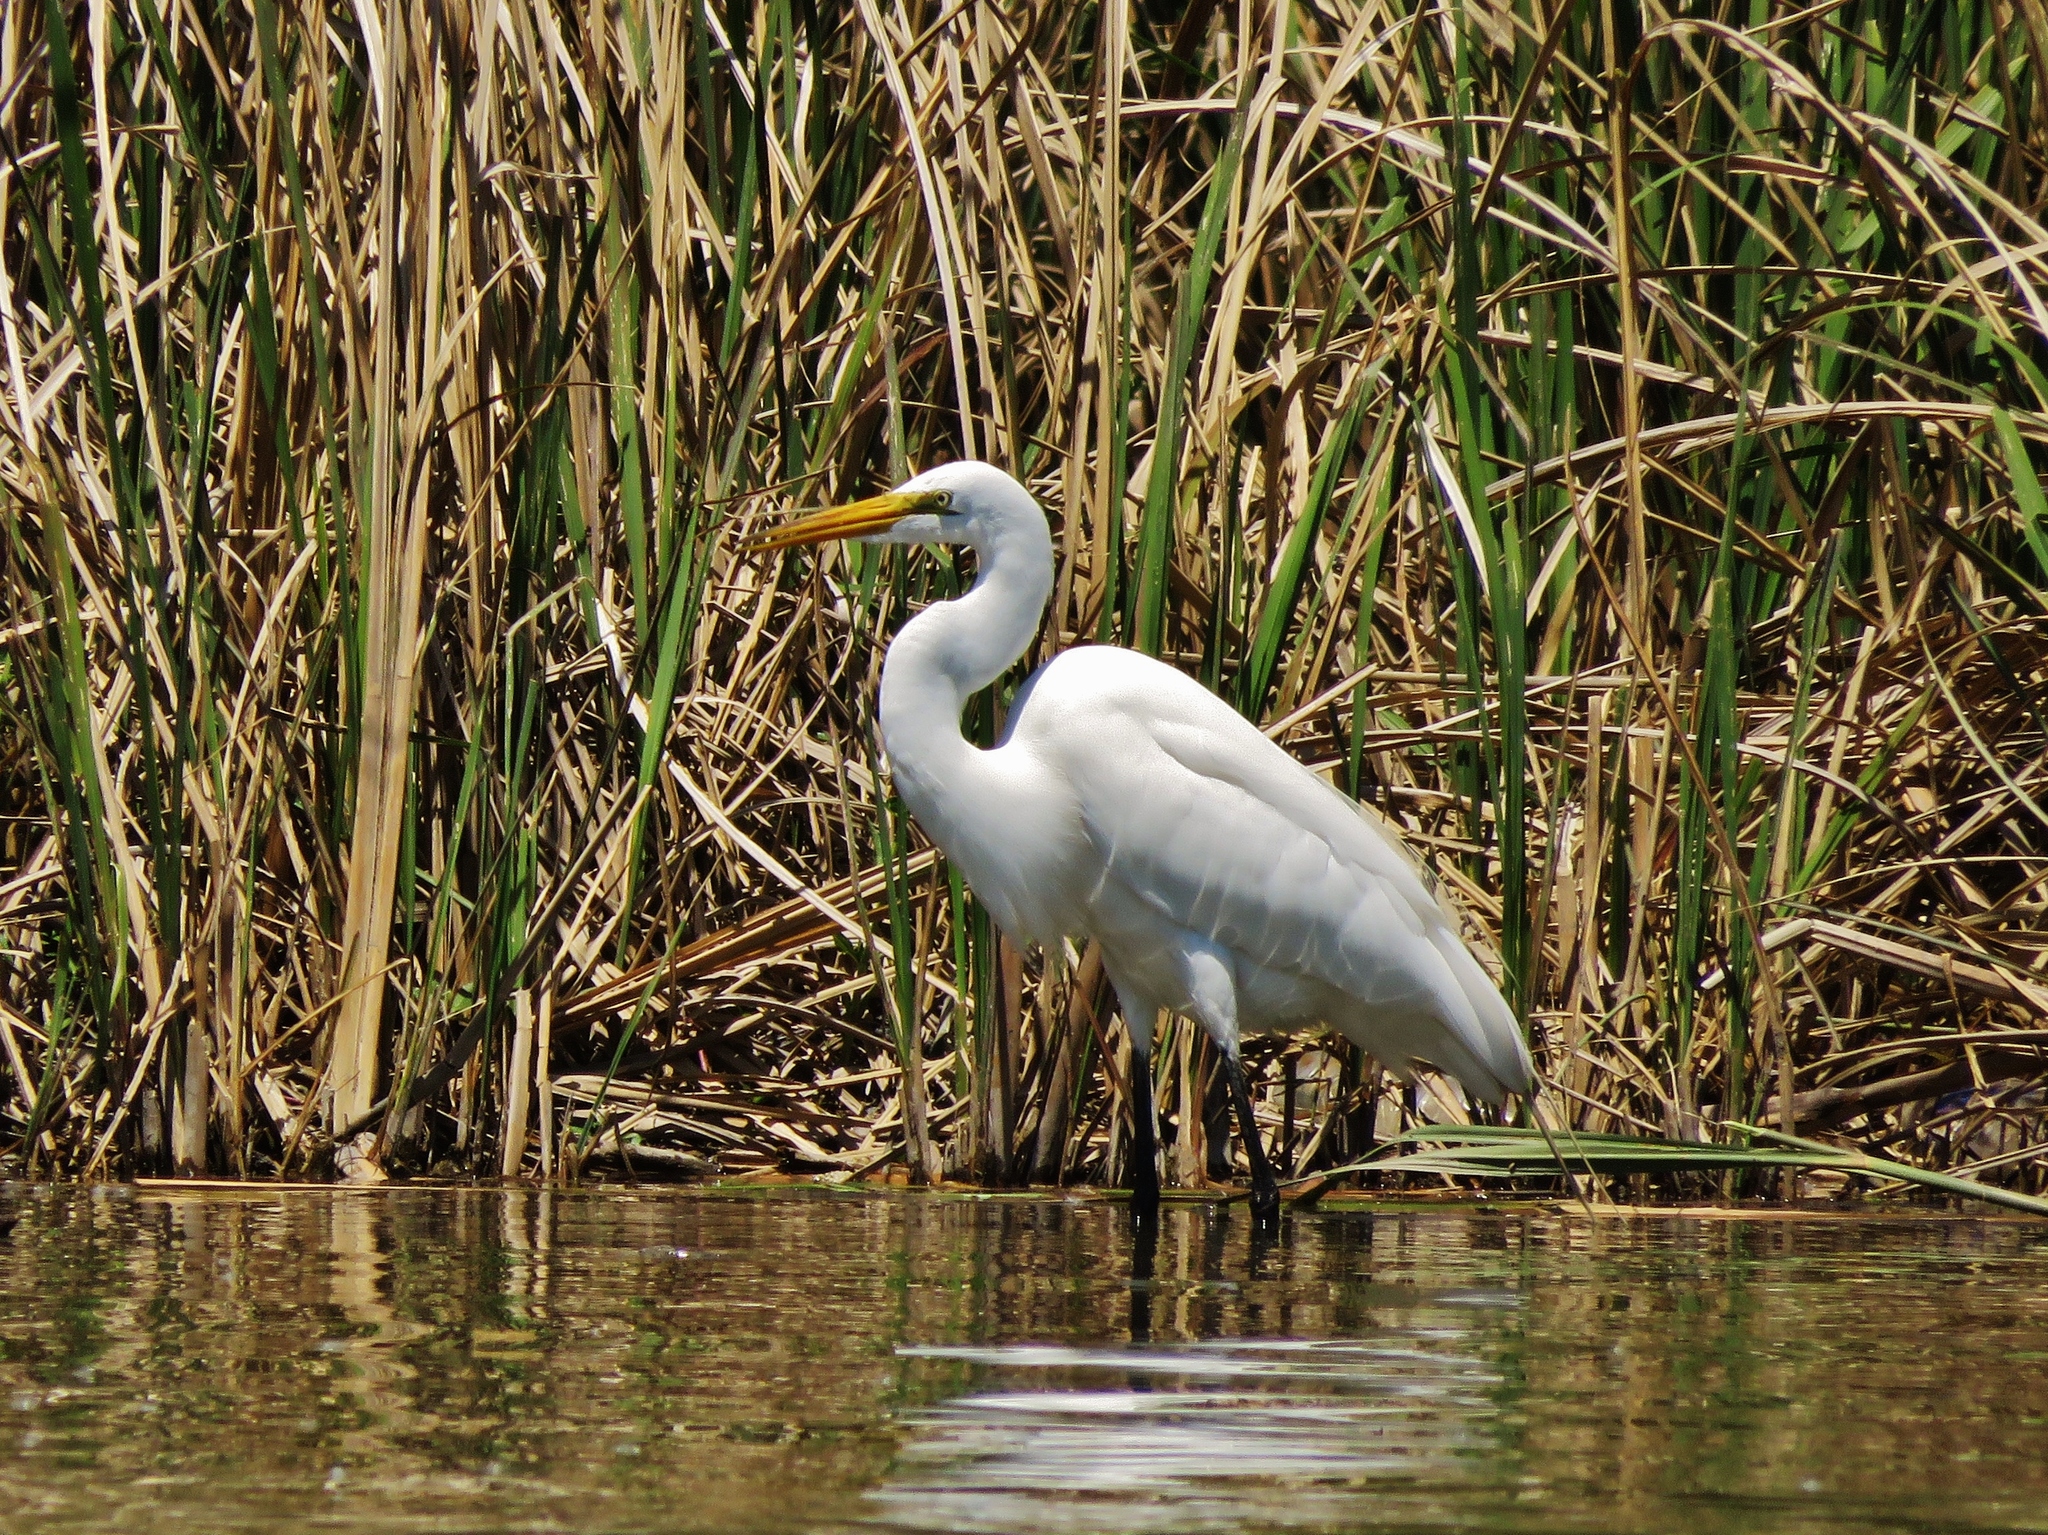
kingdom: Animalia
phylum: Chordata
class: Aves
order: Pelecaniformes
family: Ardeidae
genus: Ardea
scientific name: Ardea alba
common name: Great egret
